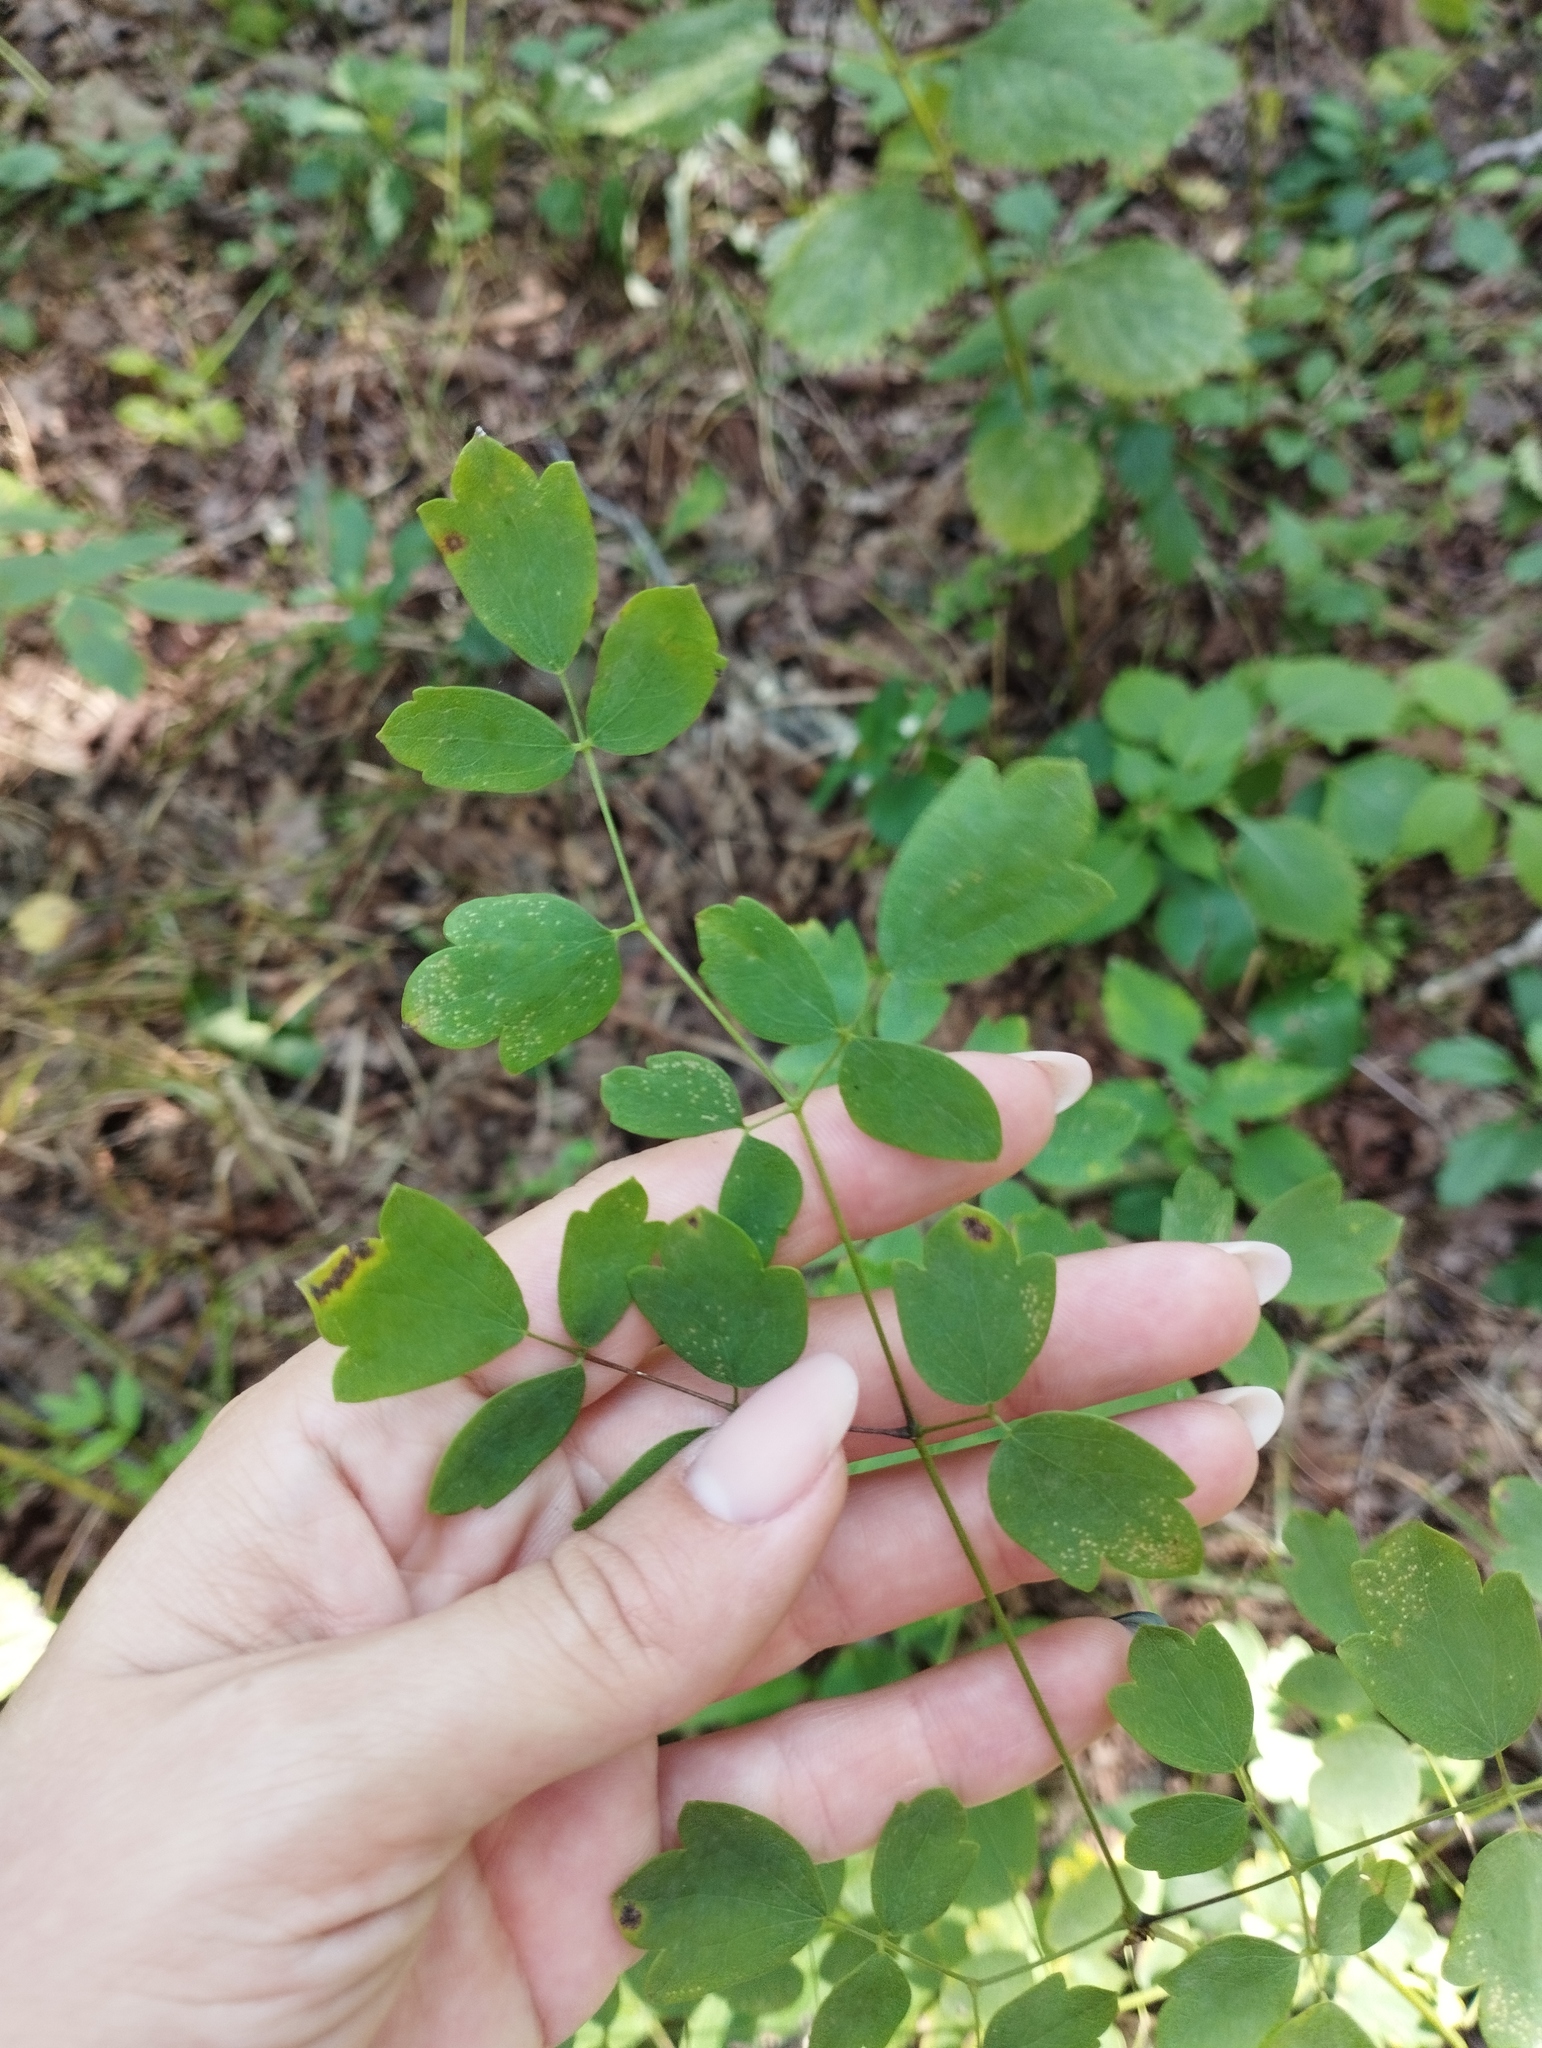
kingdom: Plantae
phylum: Tracheophyta
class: Magnoliopsida
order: Ranunculales
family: Ranunculaceae
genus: Thalictrum
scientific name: Thalictrum minus
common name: Lesser meadow-rue
